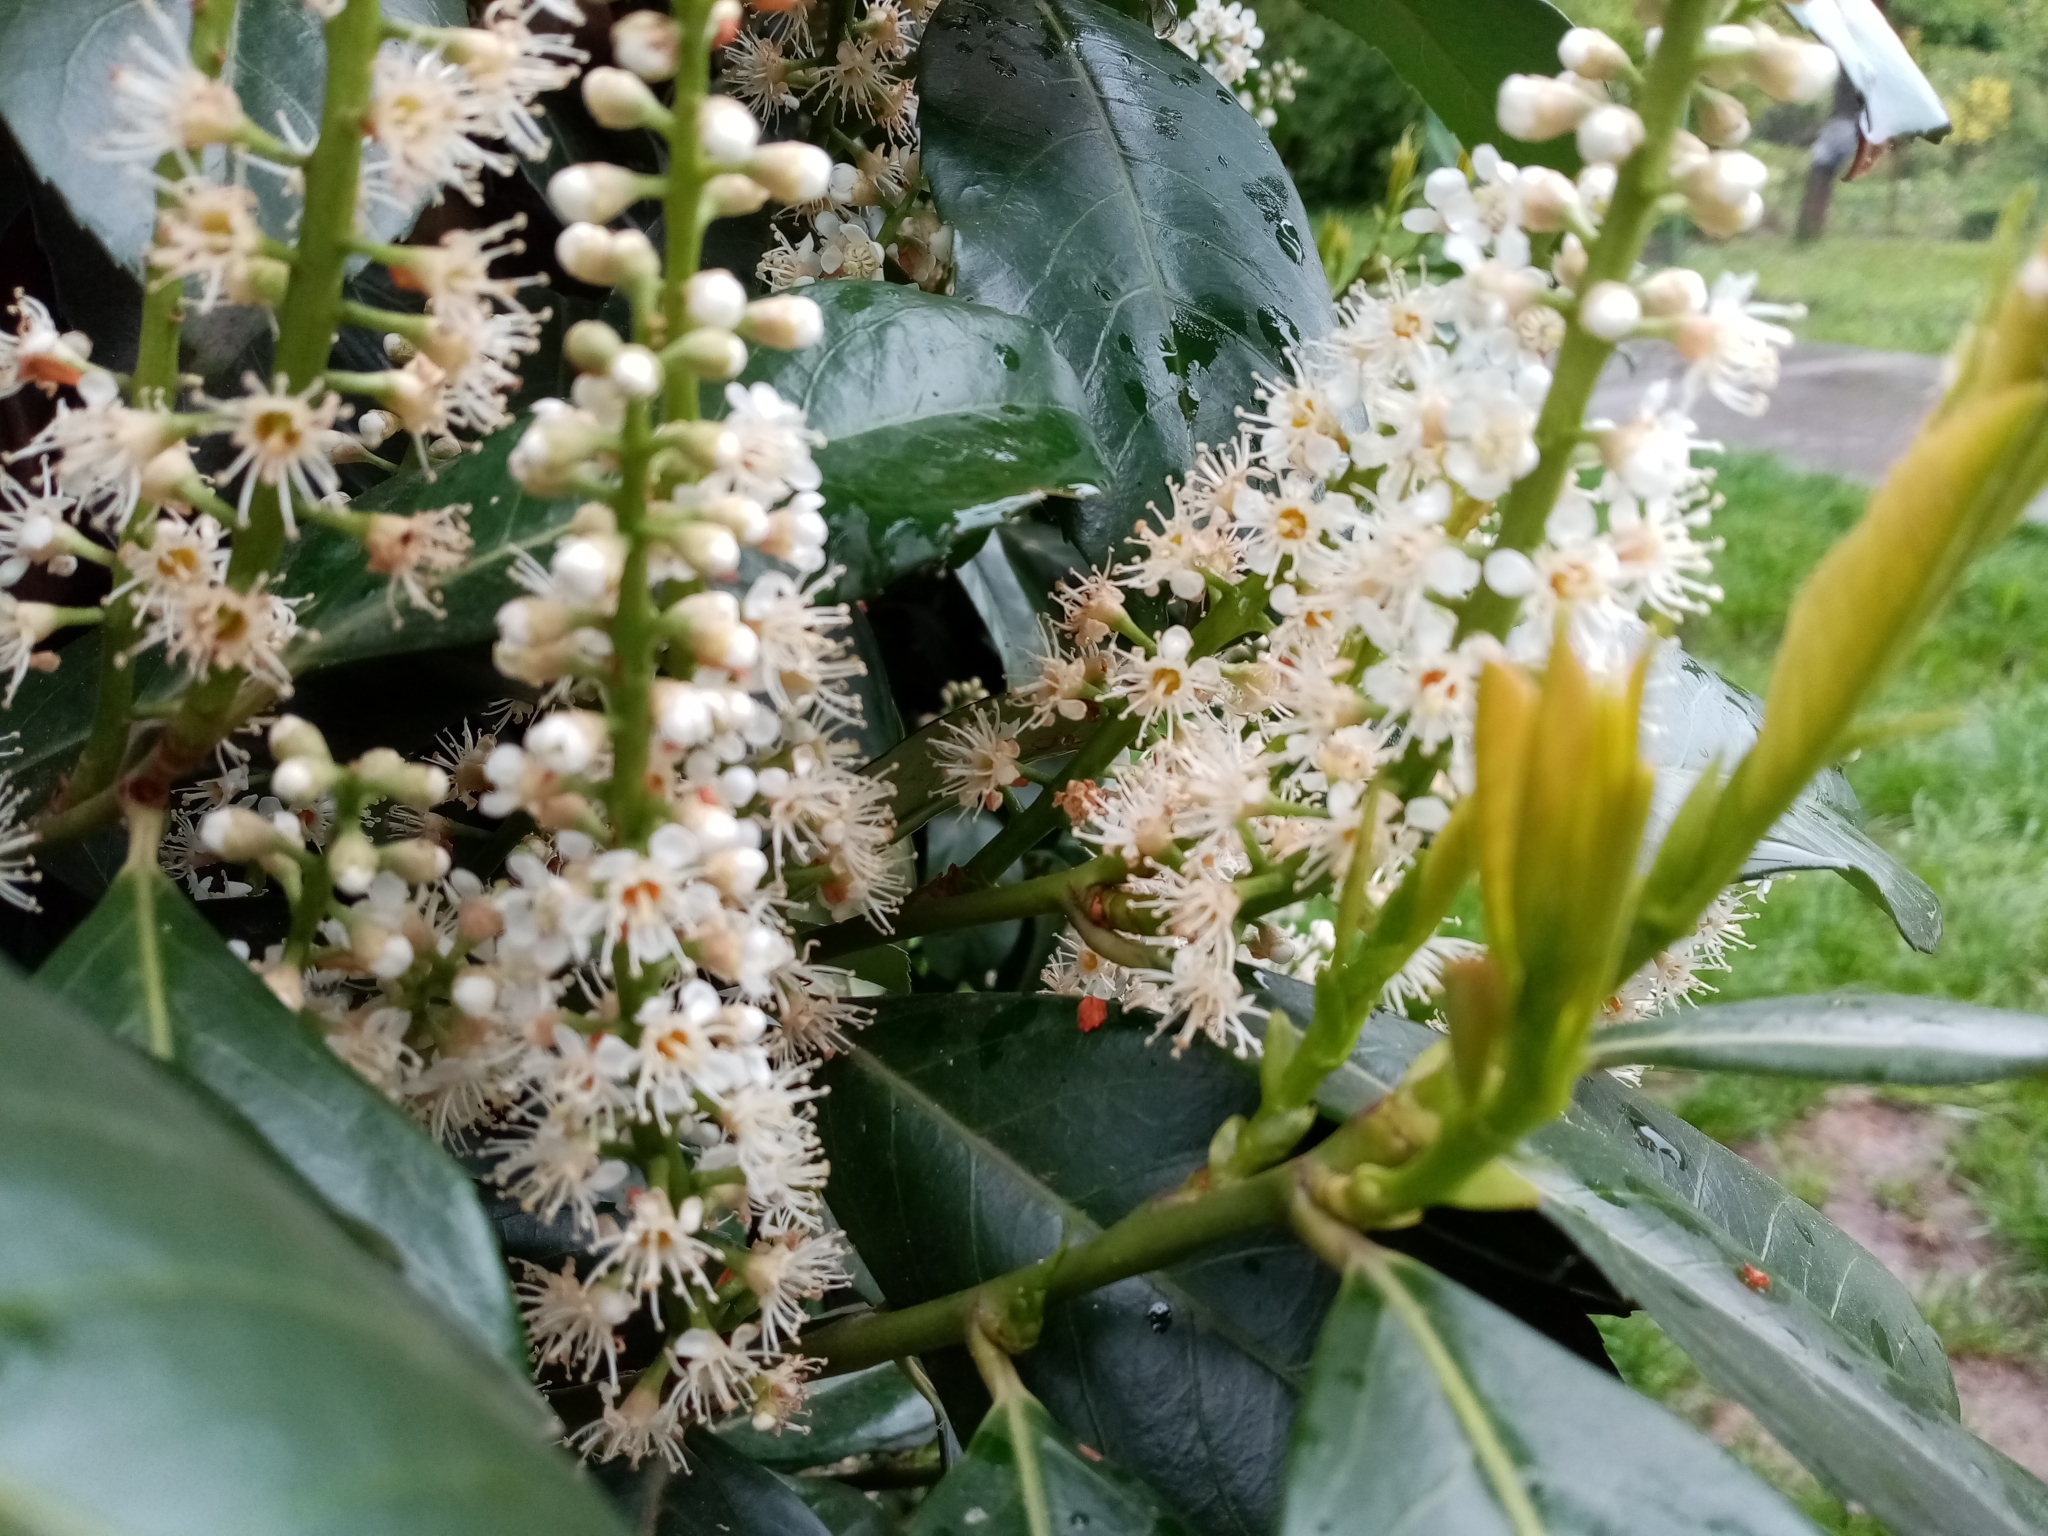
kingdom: Plantae
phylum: Tracheophyta
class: Magnoliopsida
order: Rosales
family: Rosaceae
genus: Prunus
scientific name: Prunus laurocerasus
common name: Cherry laurel
